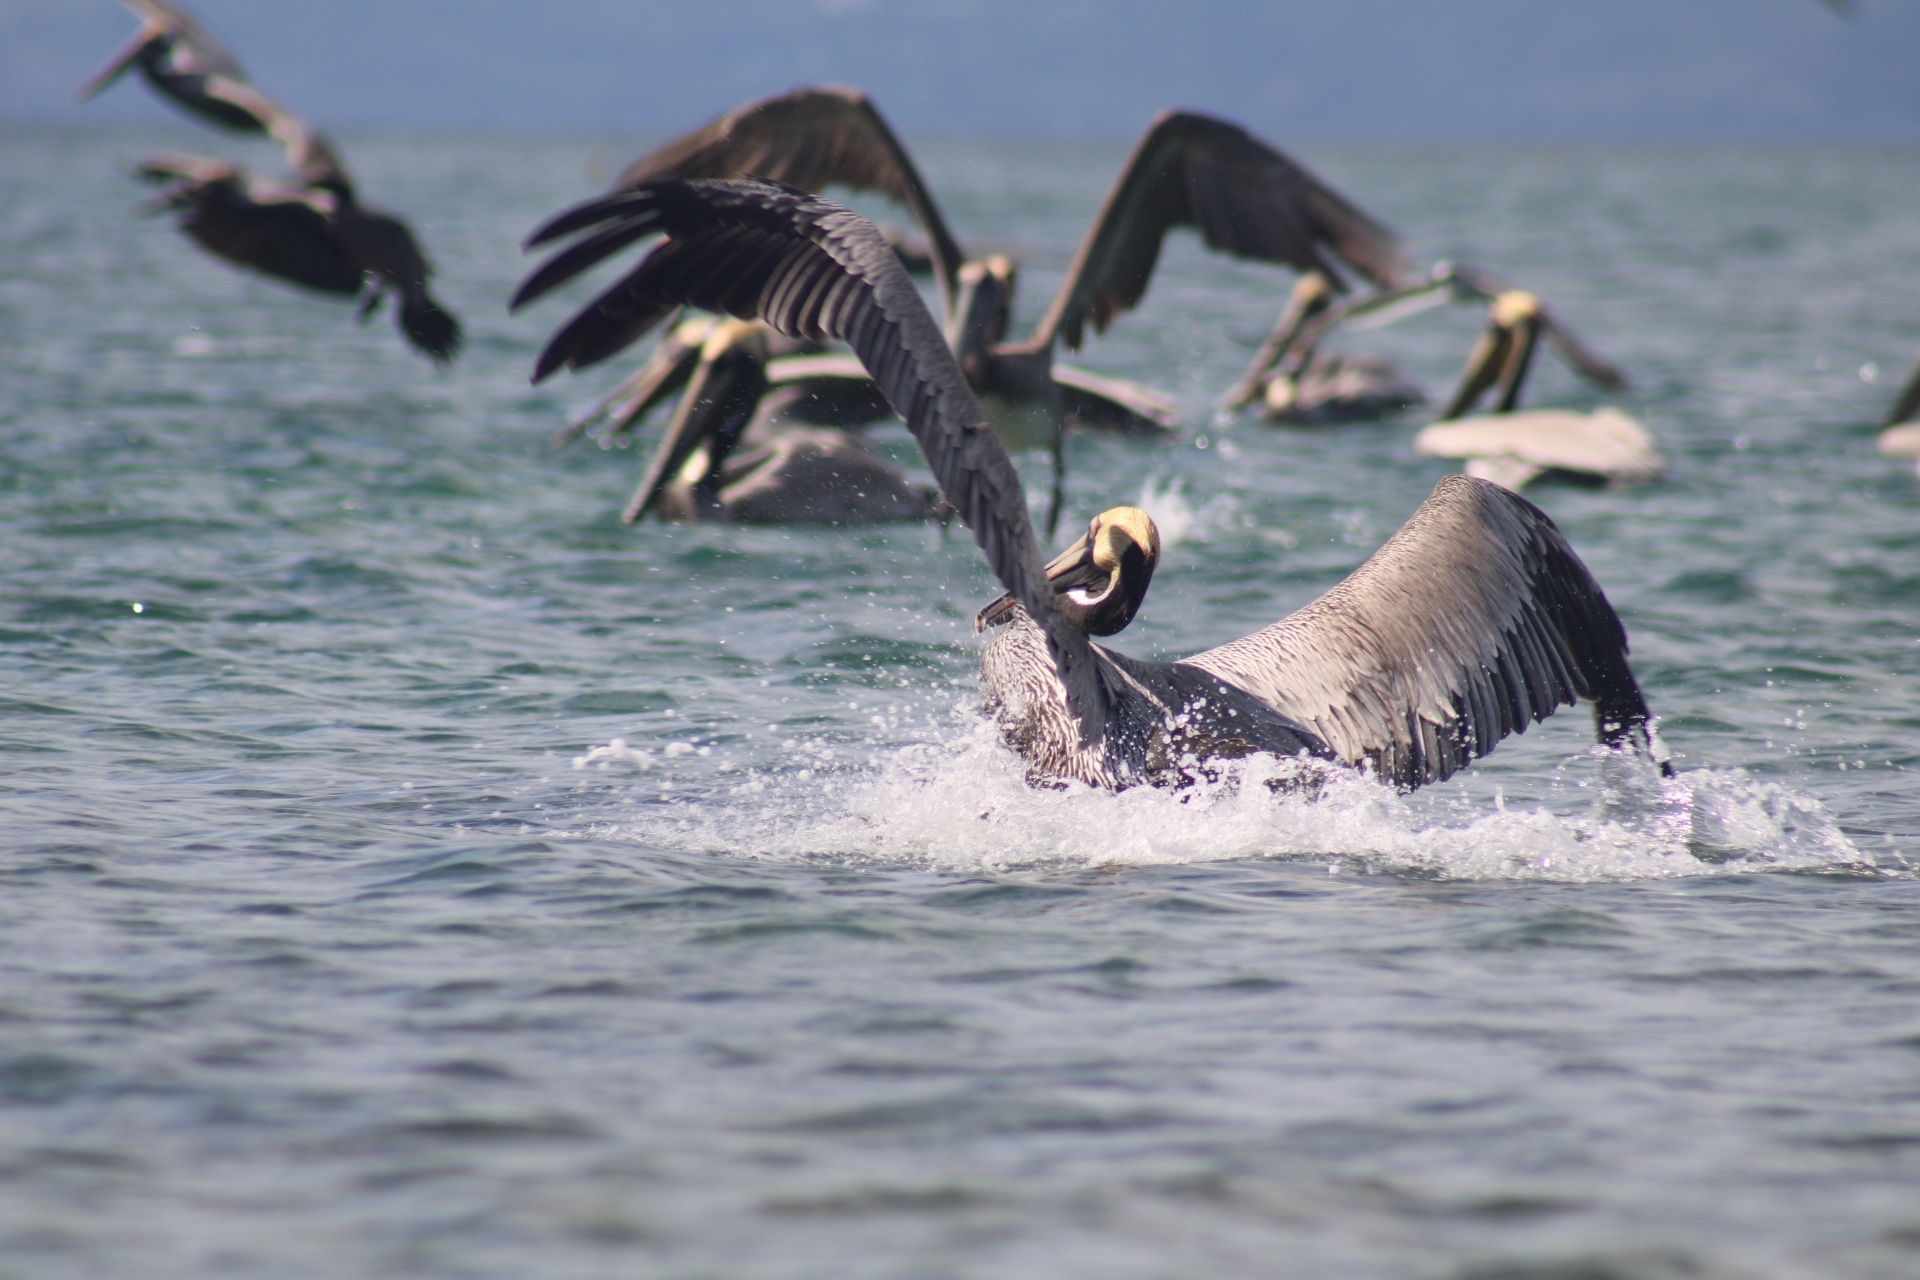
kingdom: Animalia
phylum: Chordata
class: Aves
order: Pelecaniformes
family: Pelecanidae
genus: Pelecanus
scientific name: Pelecanus occidentalis
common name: Brown pelican
